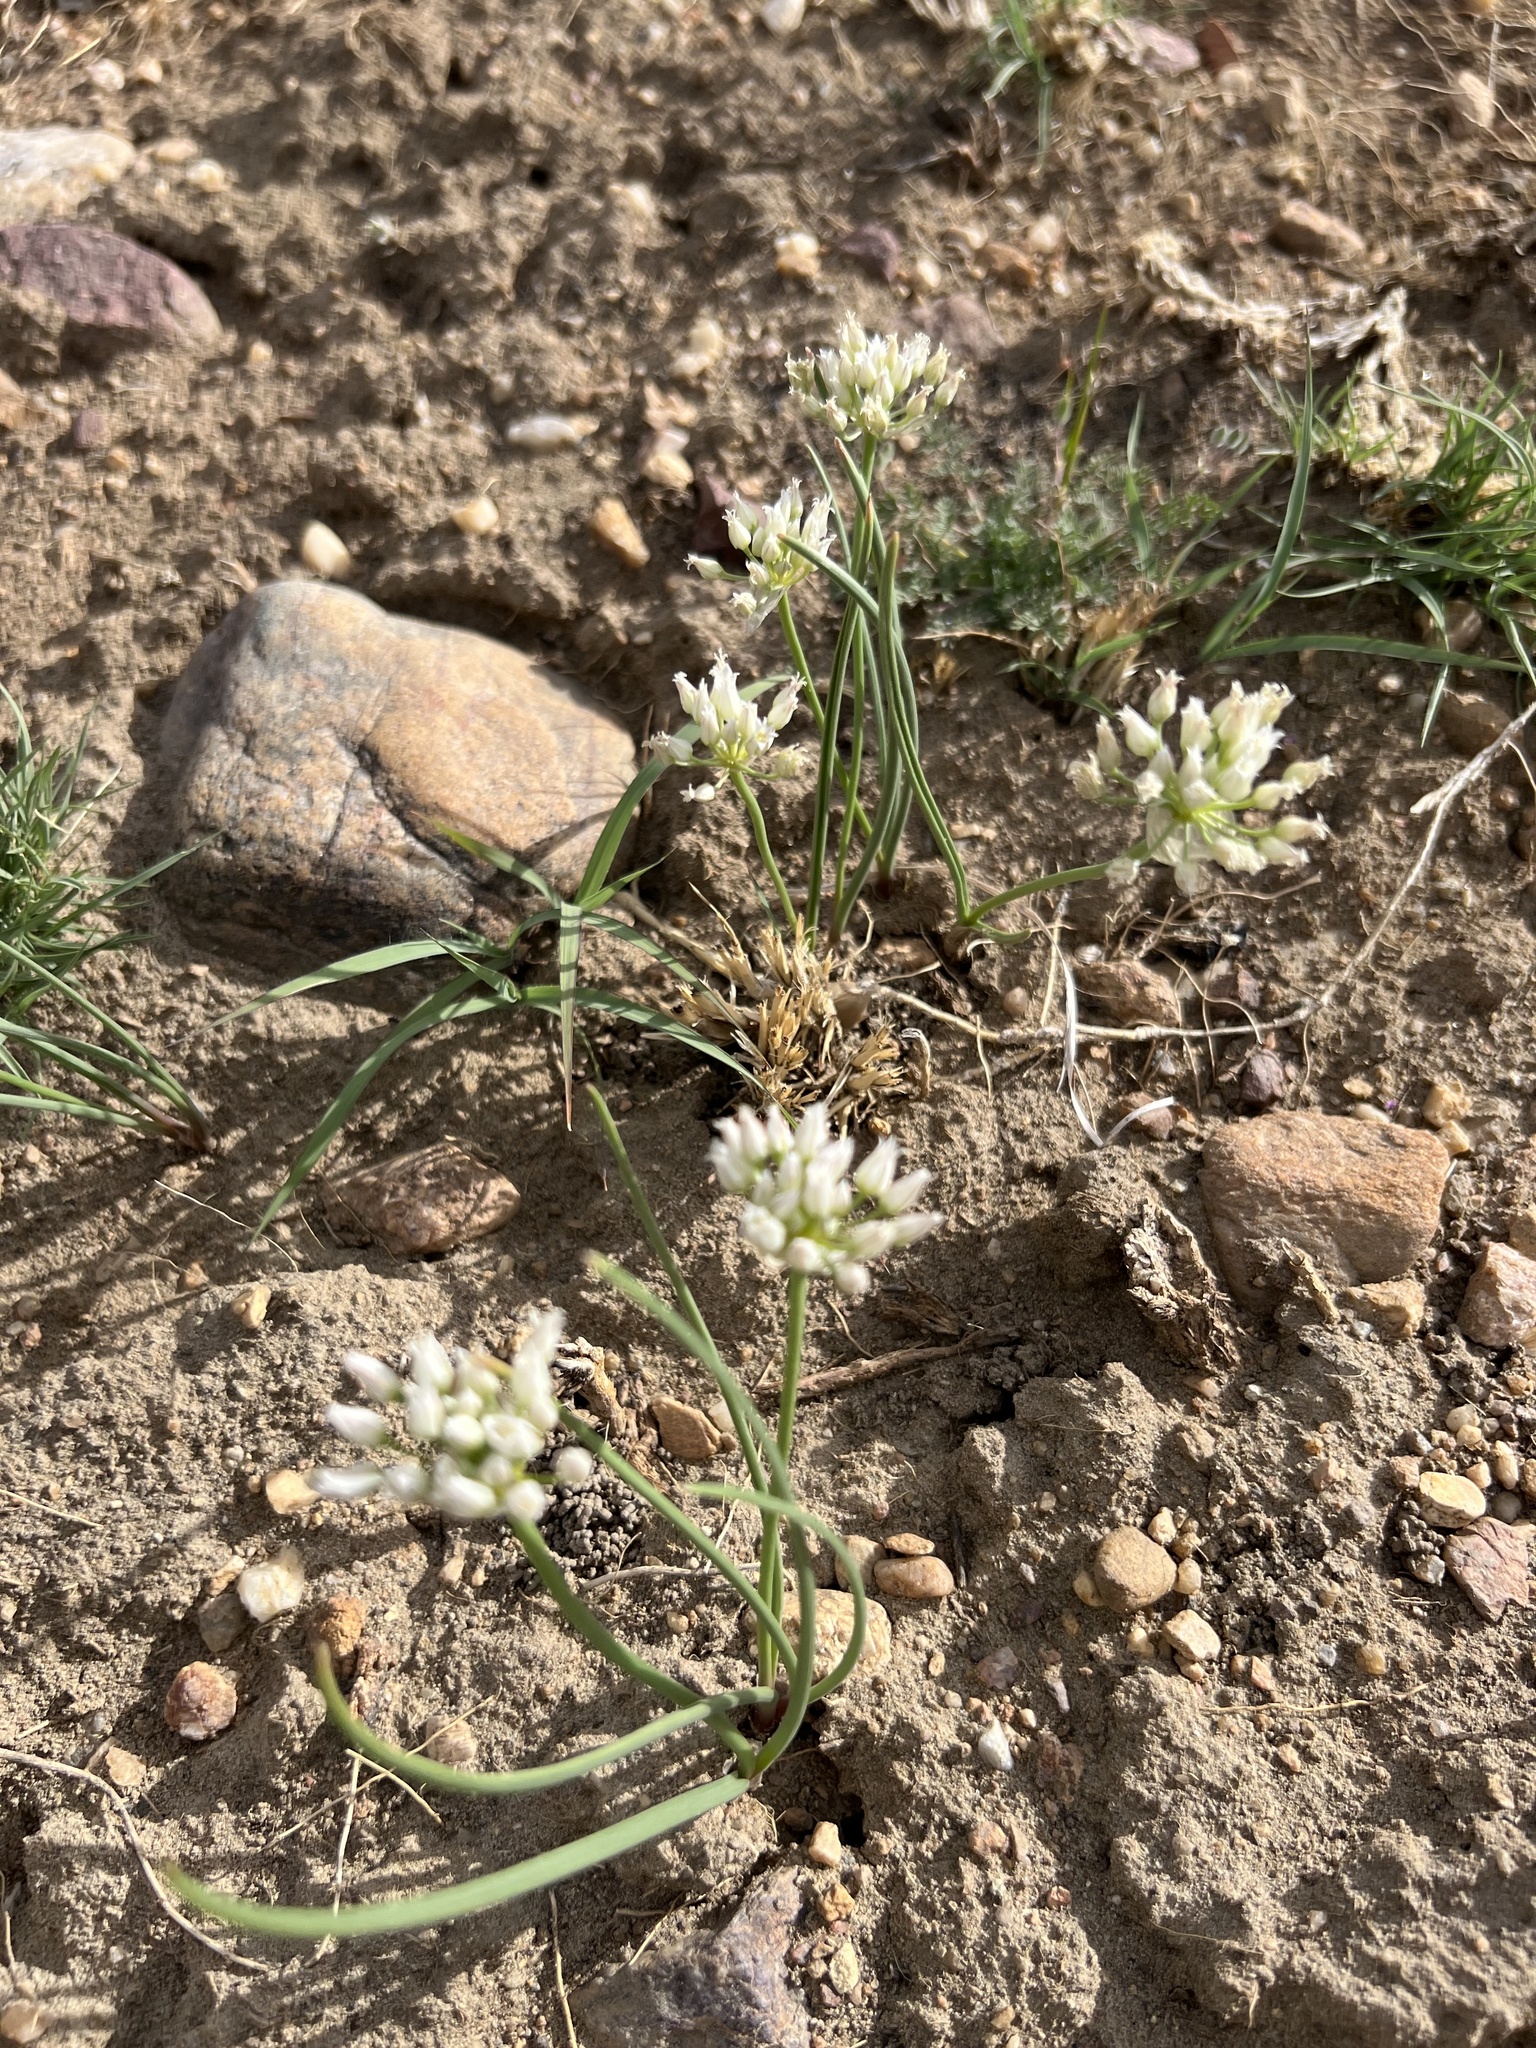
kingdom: Plantae
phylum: Tracheophyta
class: Liliopsida
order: Asparagales
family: Amaryllidaceae
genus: Allium
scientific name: Allium textile
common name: Prairie onion
